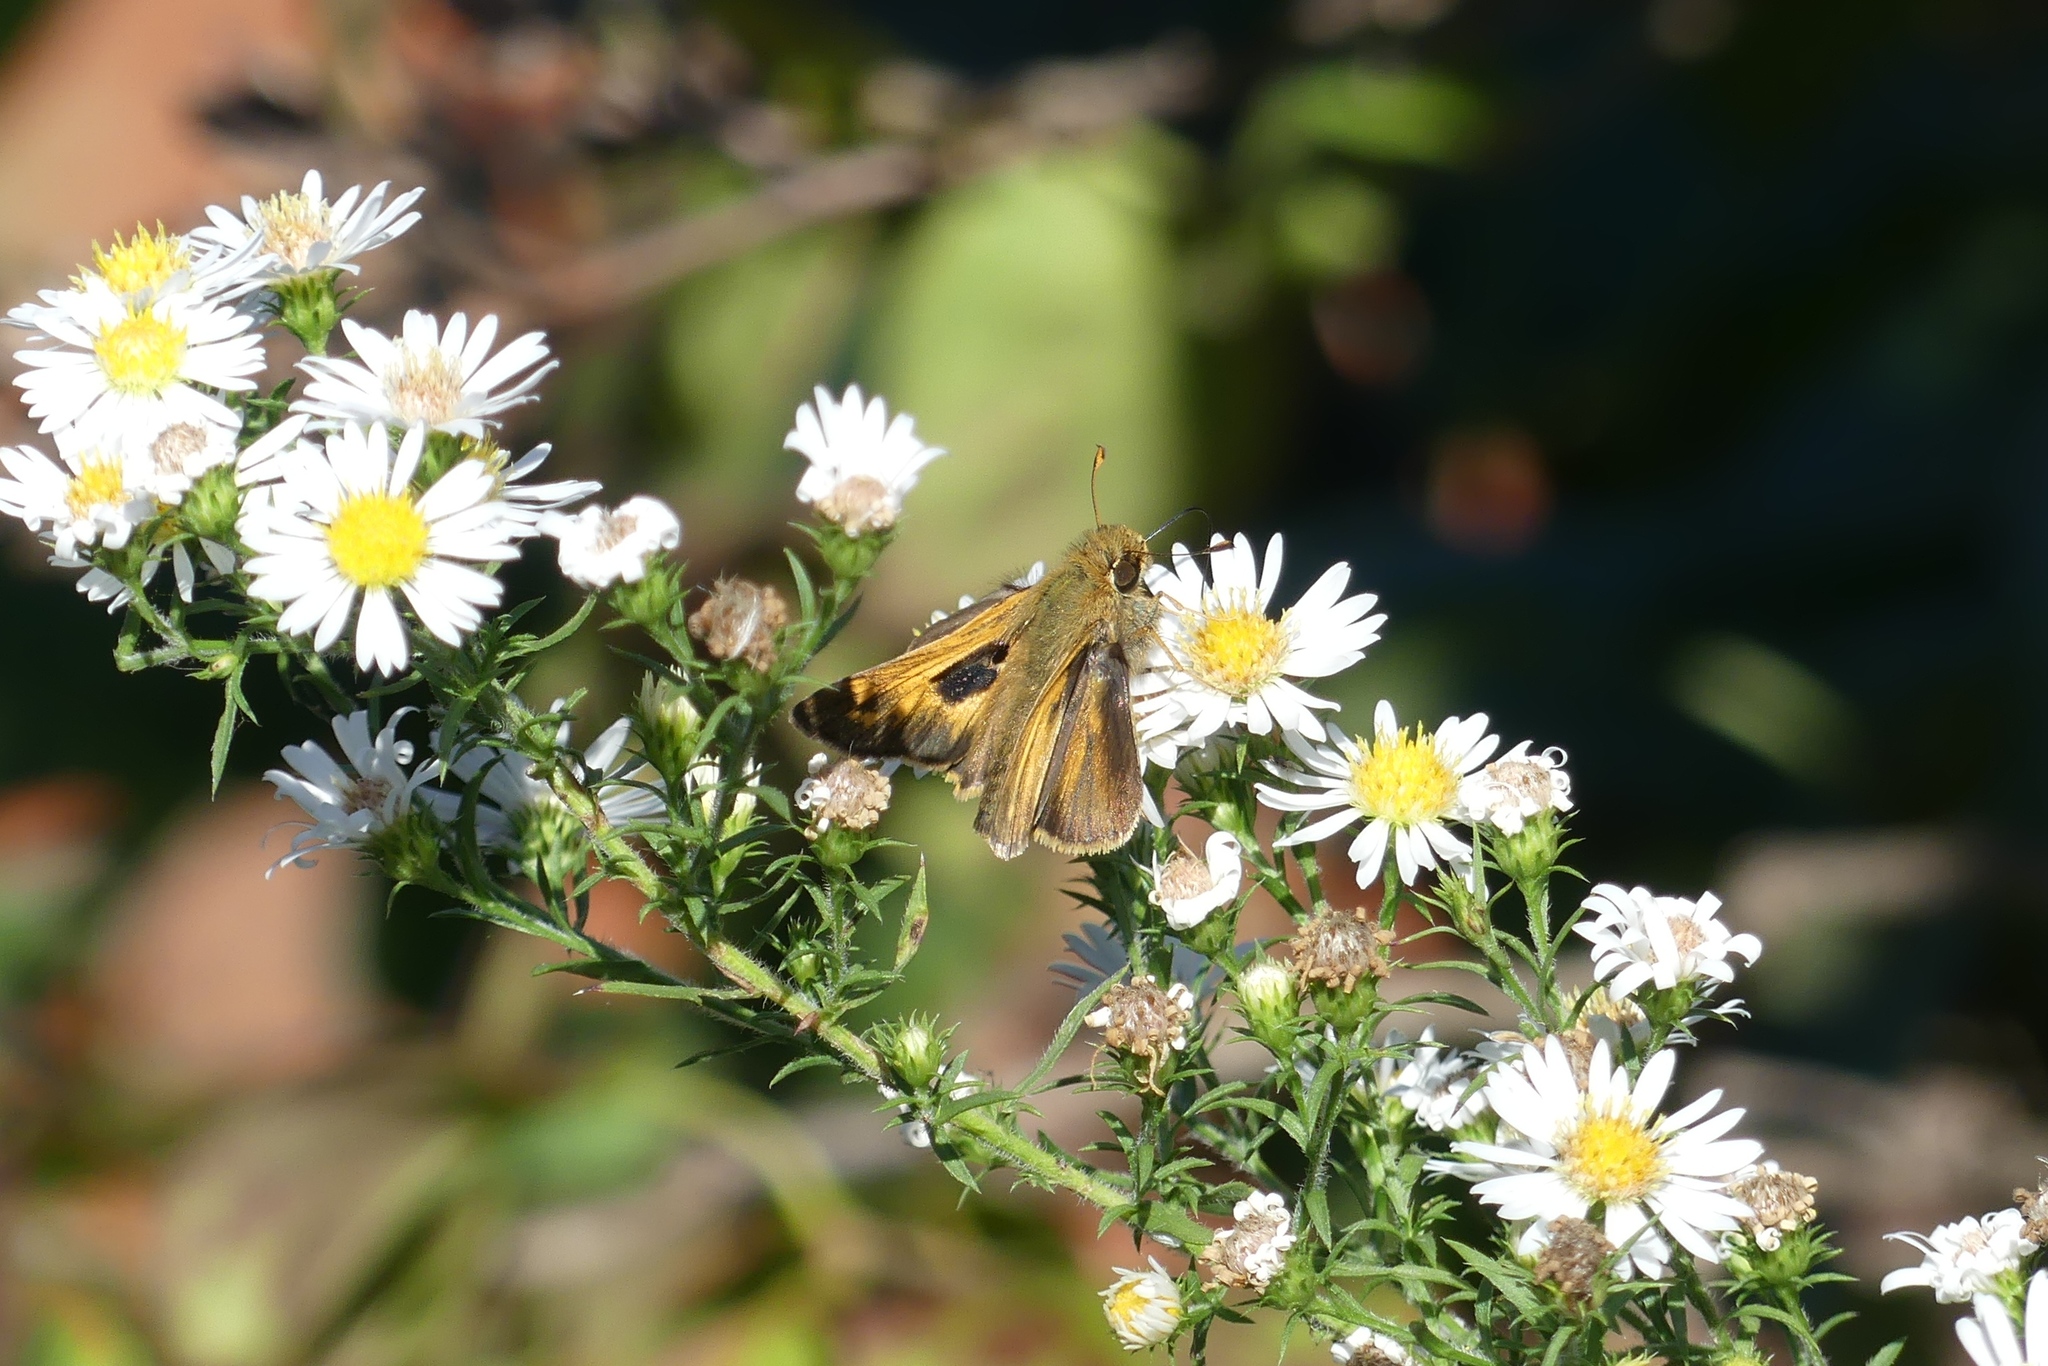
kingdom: Animalia
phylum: Arthropoda
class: Insecta
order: Lepidoptera
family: Hesperiidae
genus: Atalopedes
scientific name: Atalopedes
